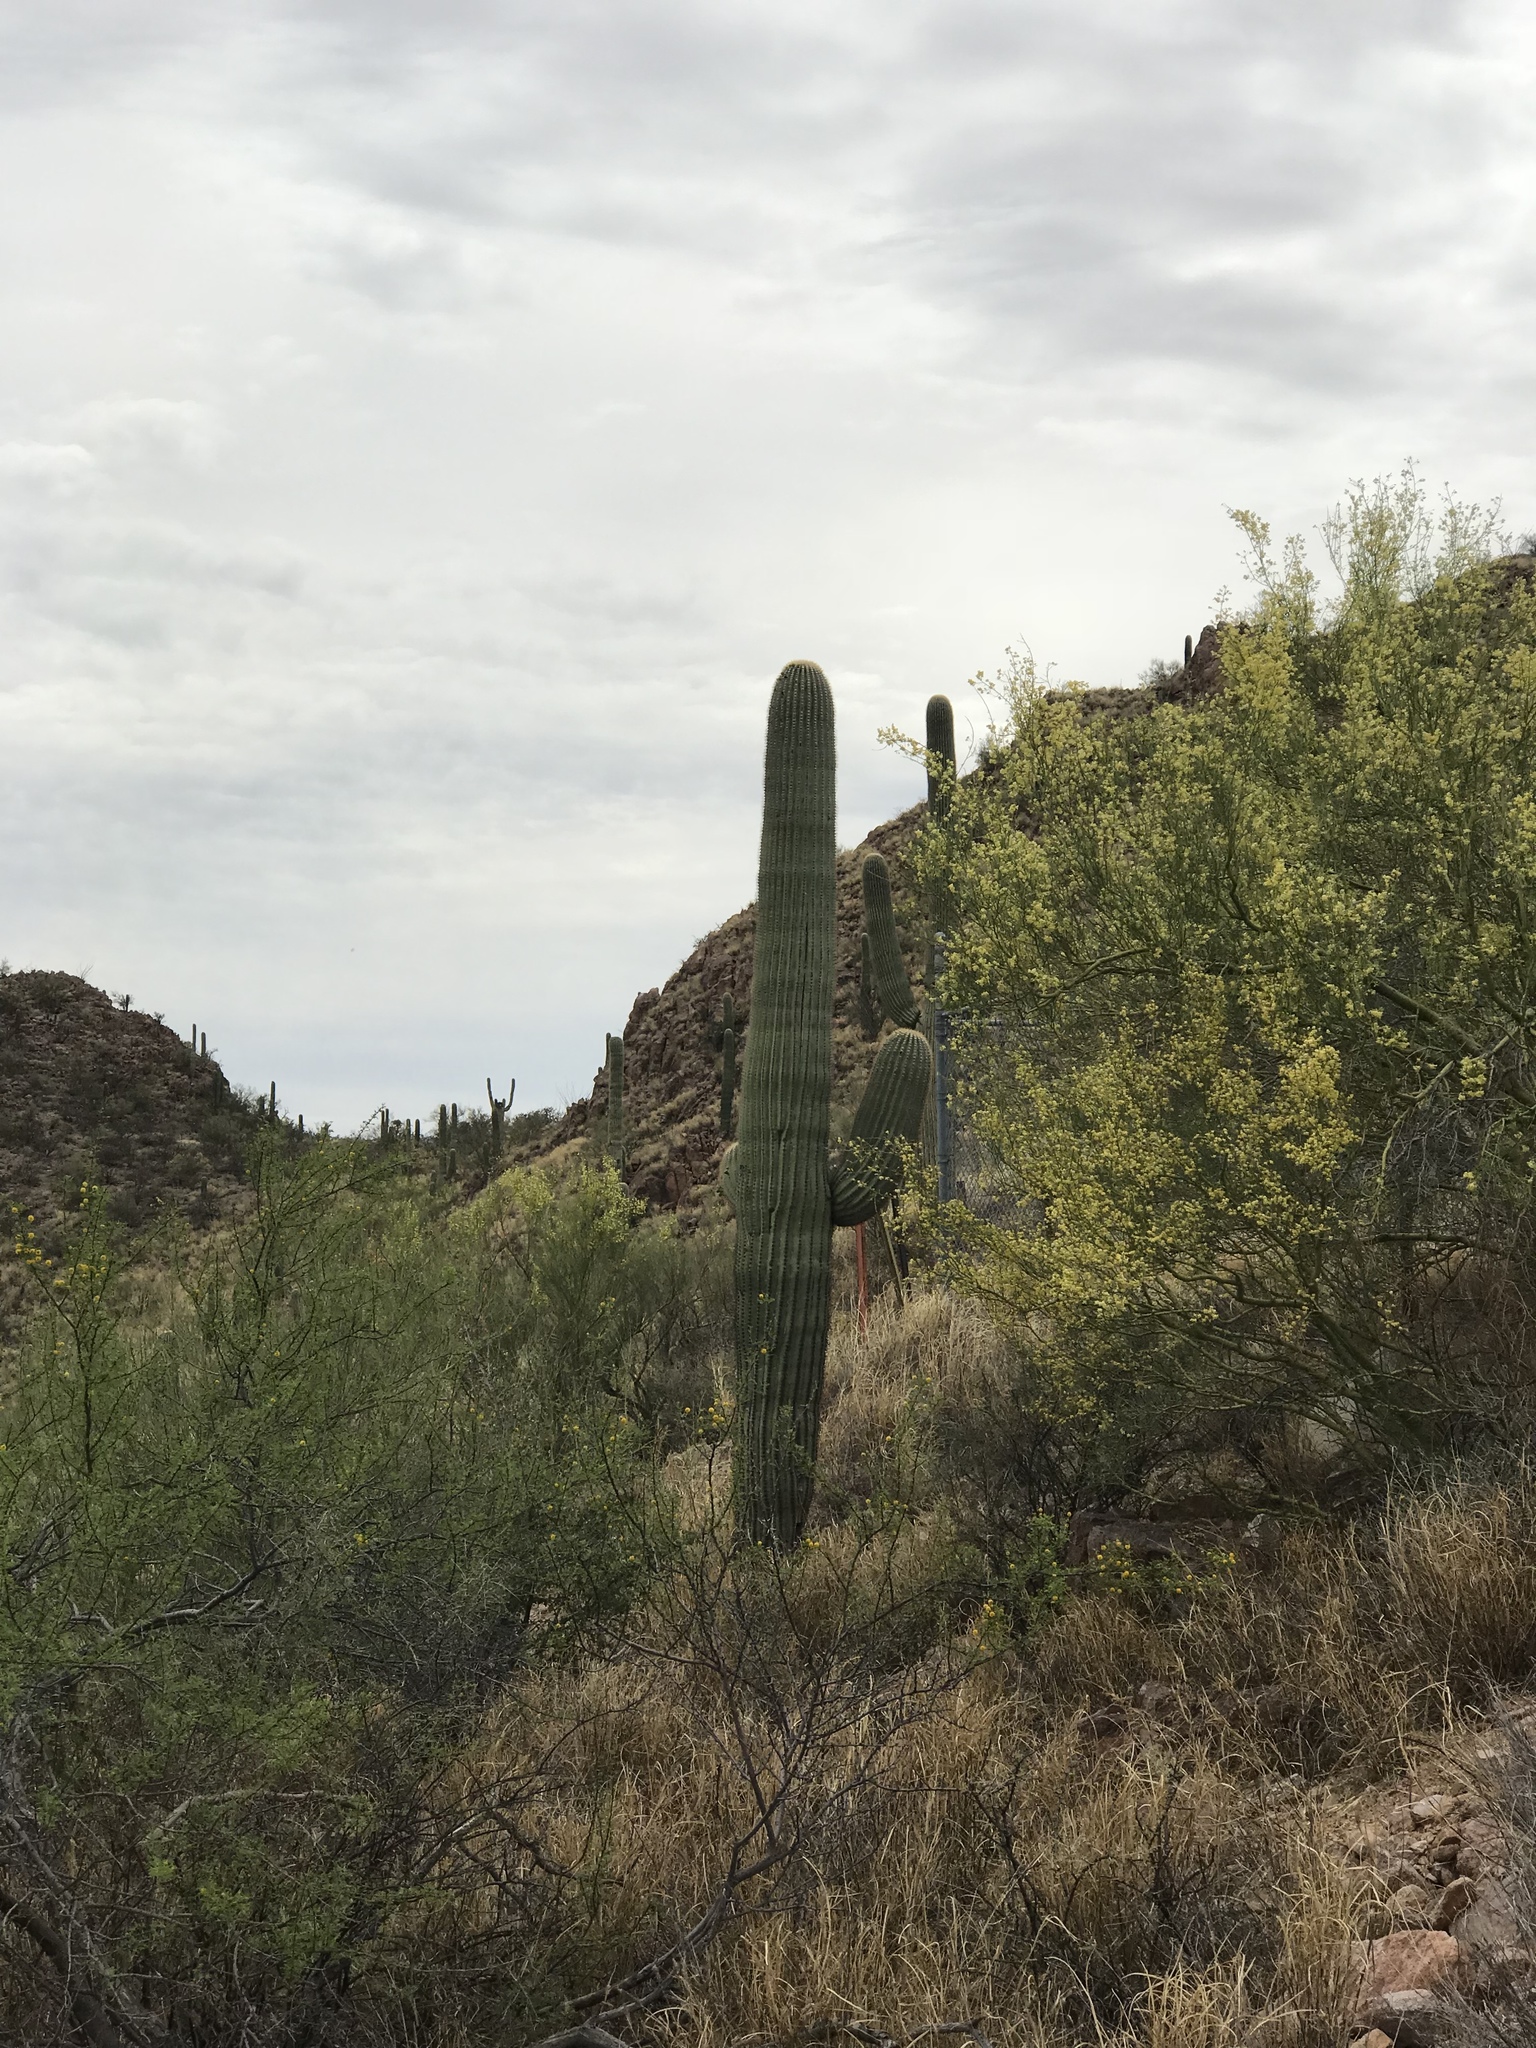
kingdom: Plantae
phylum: Tracheophyta
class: Magnoliopsida
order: Caryophyllales
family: Cactaceae
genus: Carnegiea
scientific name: Carnegiea gigantea
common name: Saguaro
